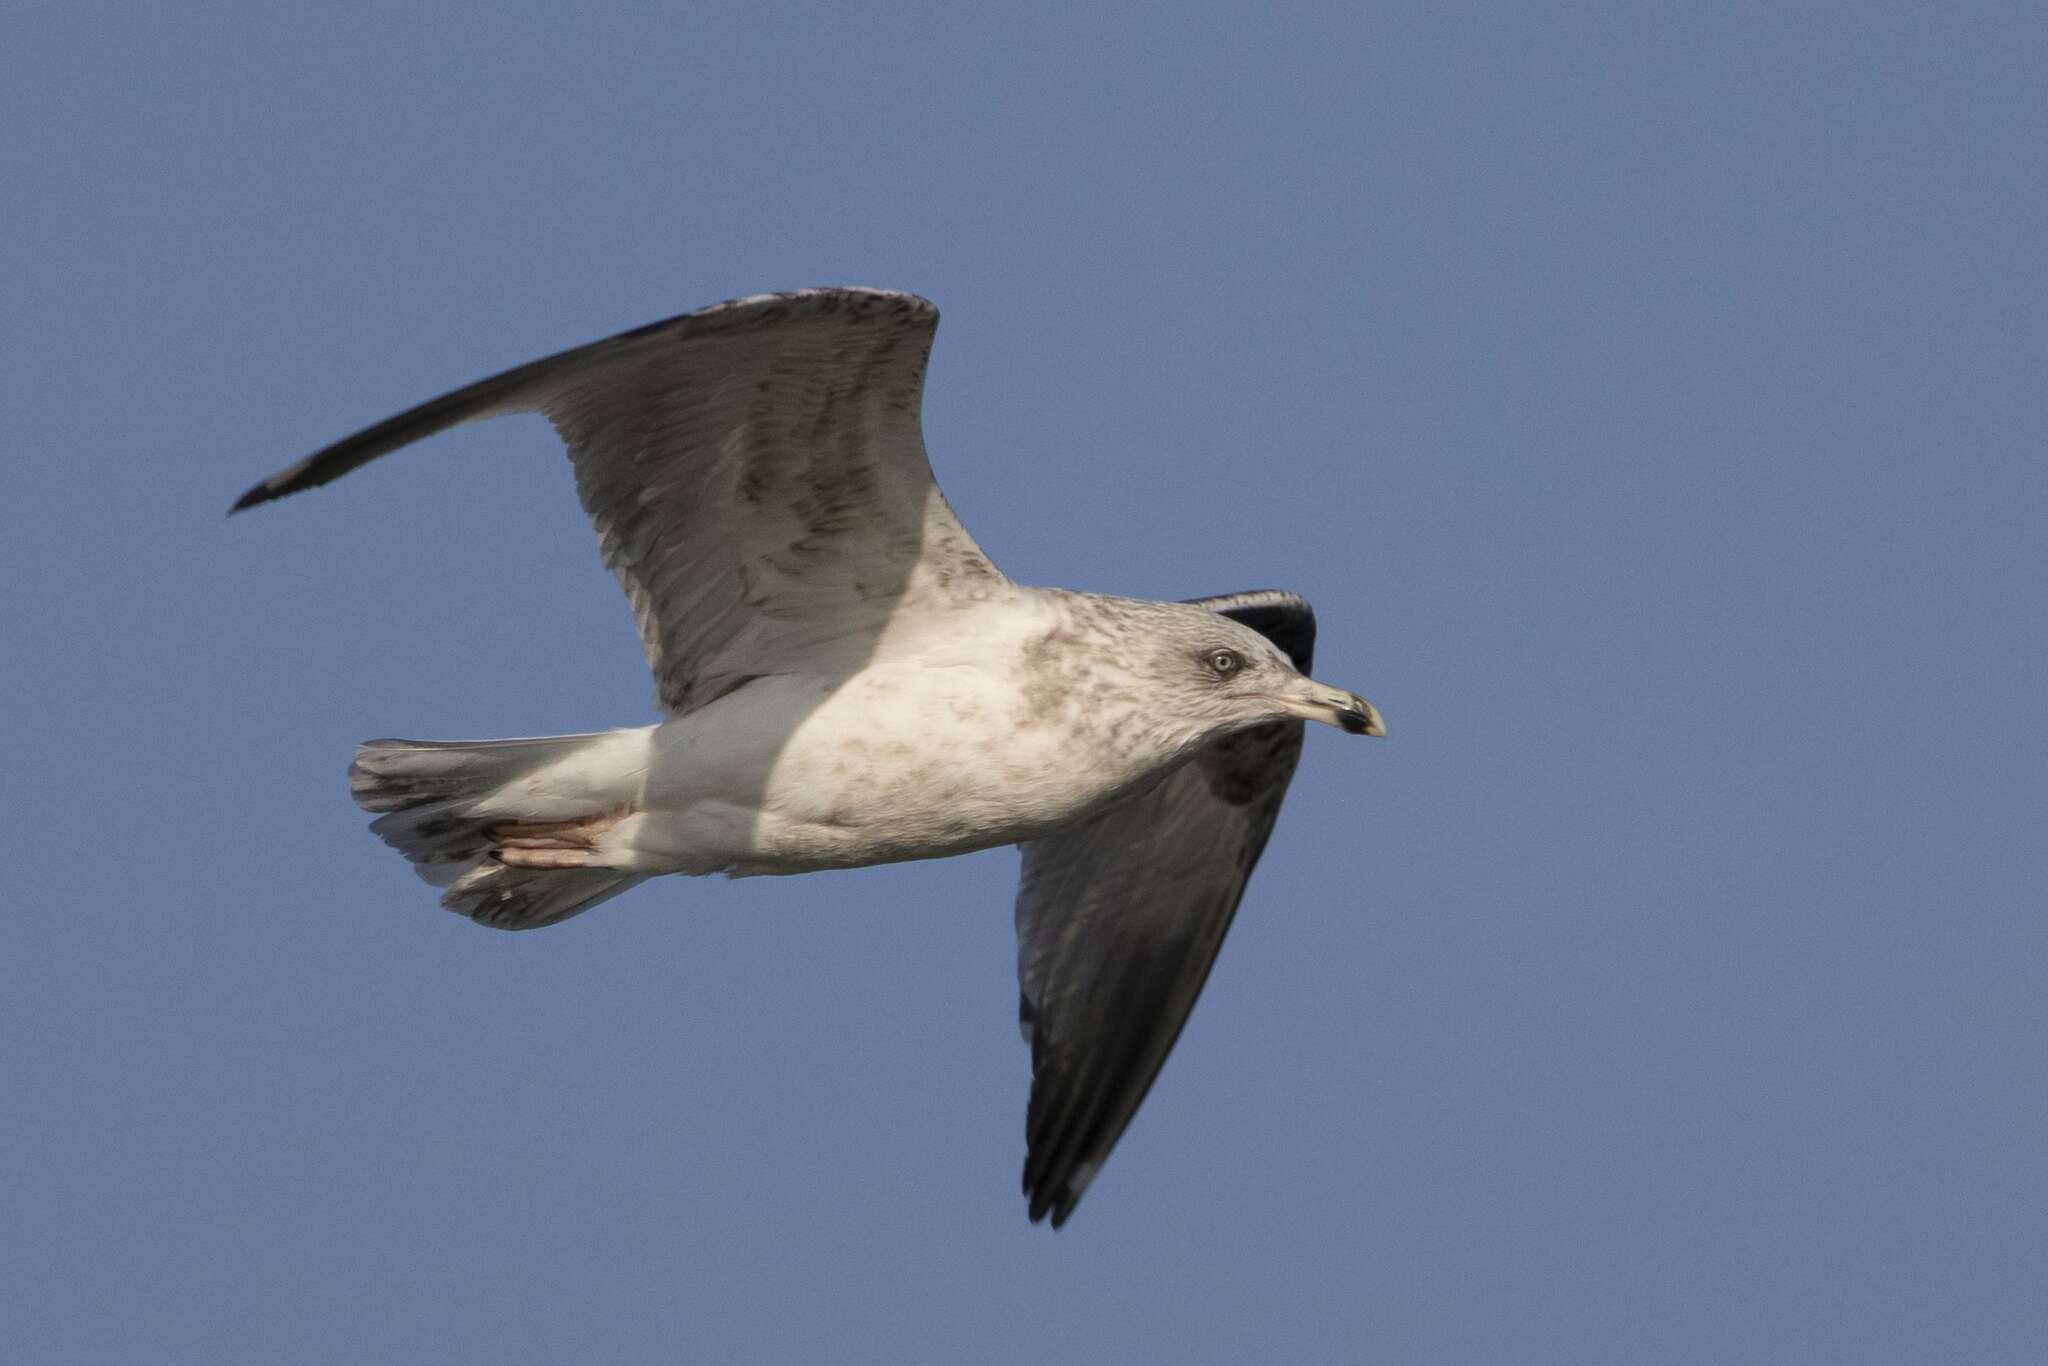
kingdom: Animalia
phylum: Chordata
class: Aves
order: Charadriiformes
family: Laridae
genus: Larus
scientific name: Larus argentatus
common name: Herring gull
